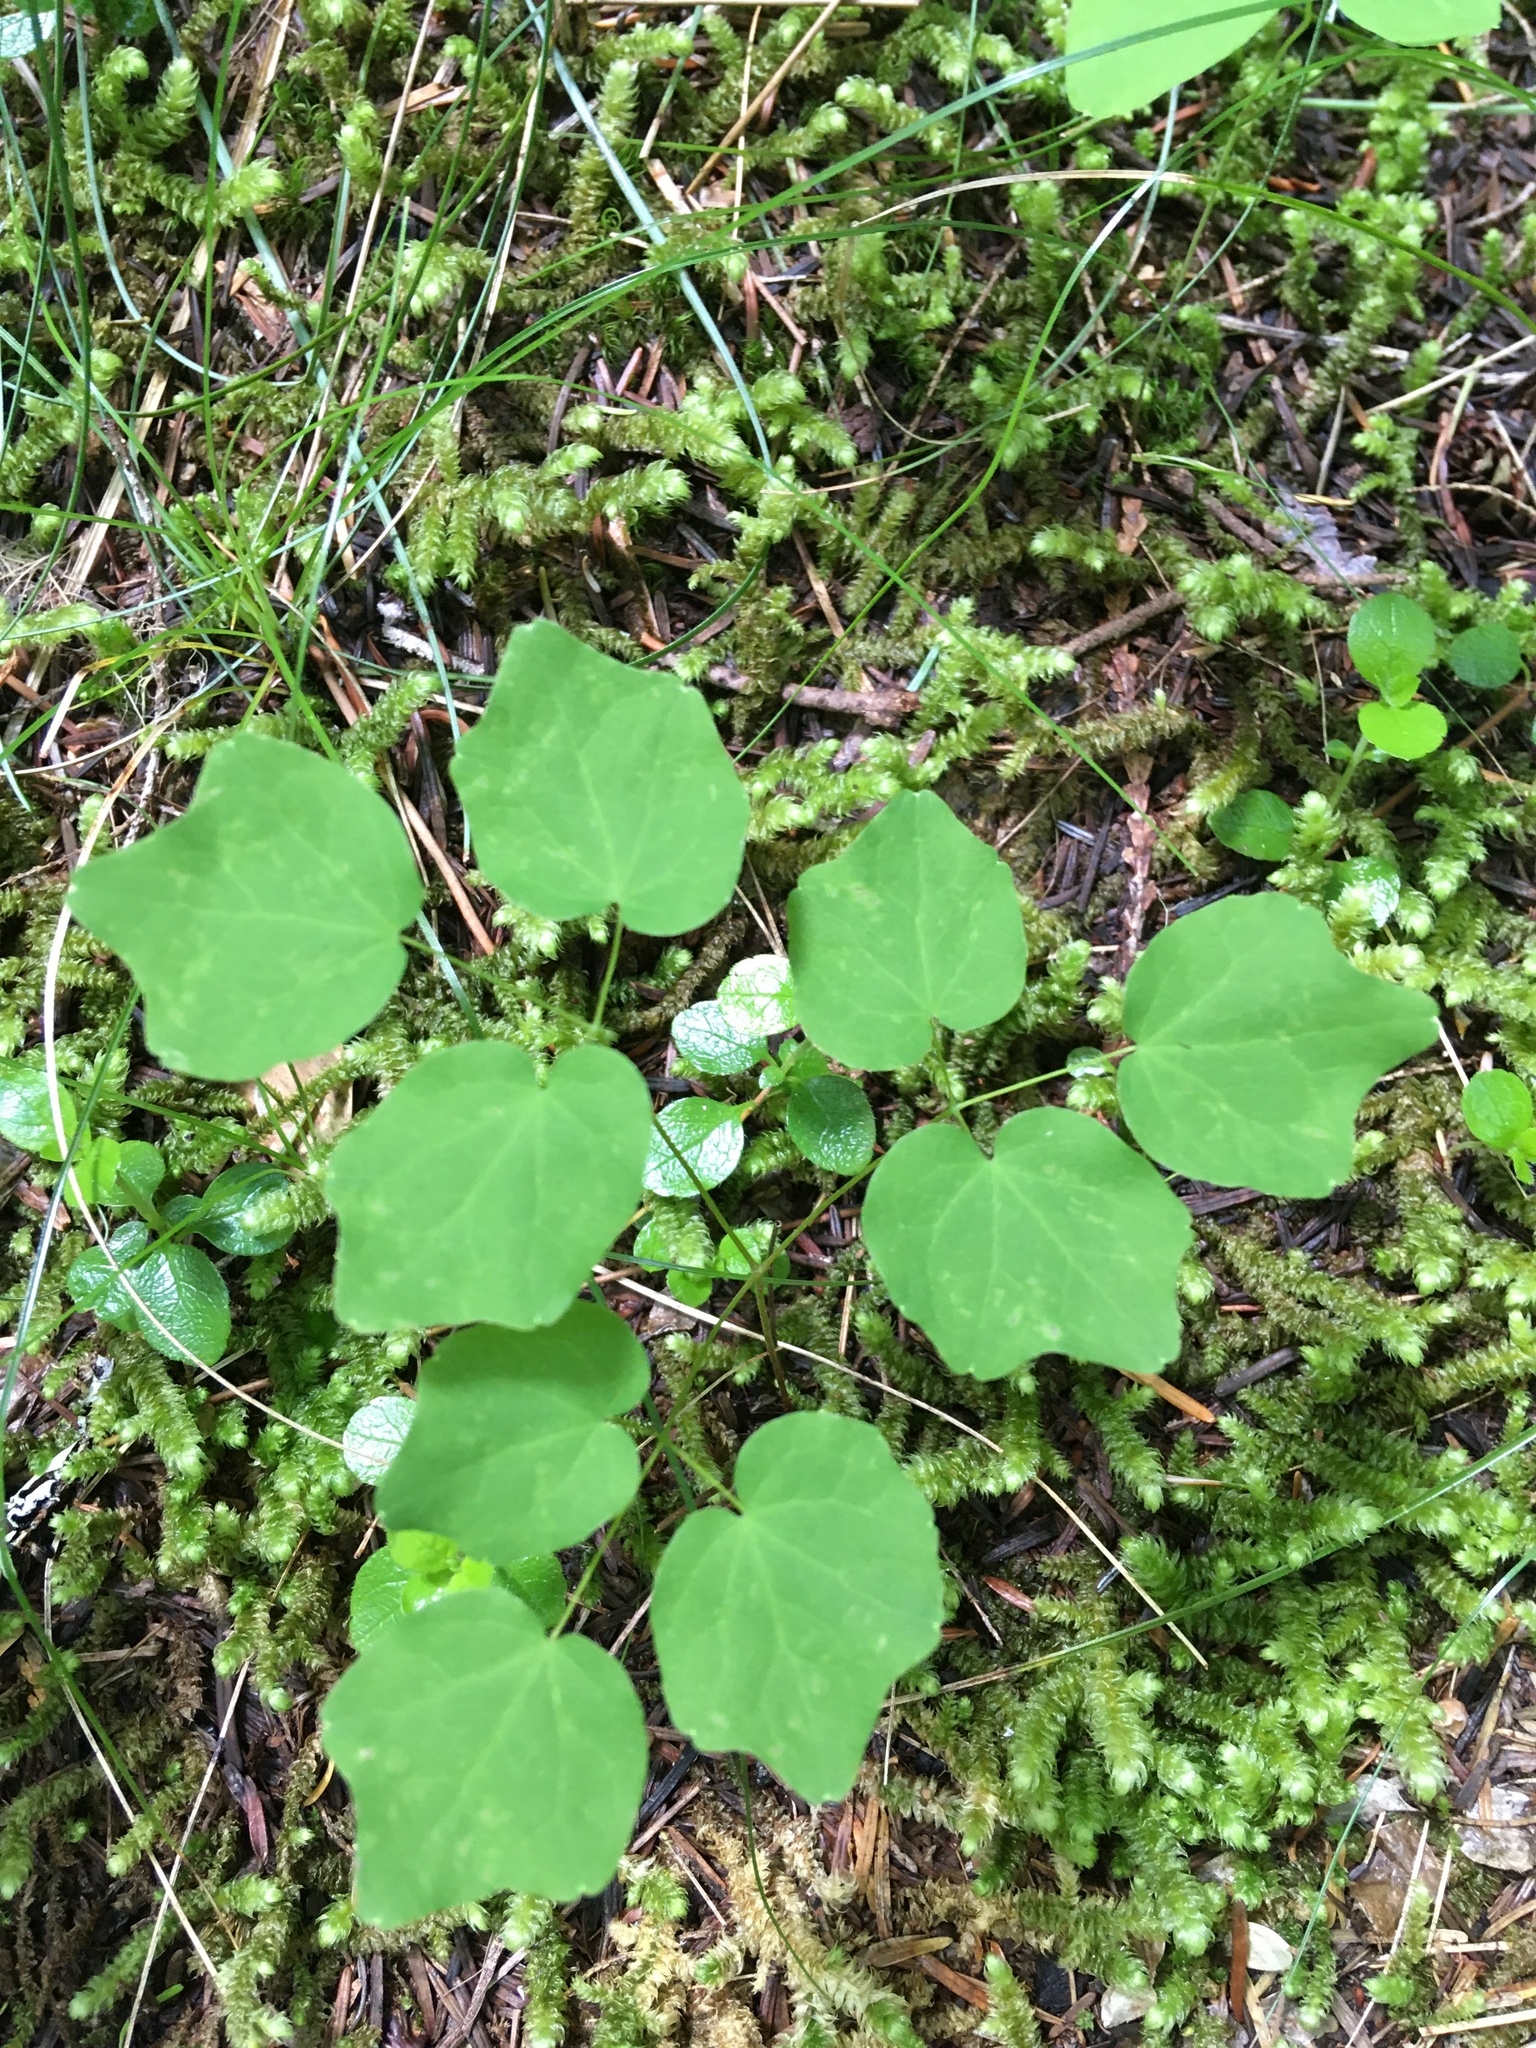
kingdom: Plantae
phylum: Tracheophyta
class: Magnoliopsida
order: Ranunculales
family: Berberidaceae
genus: Vancouveria
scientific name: Vancouveria hexandra
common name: Northern inside-out-flower
